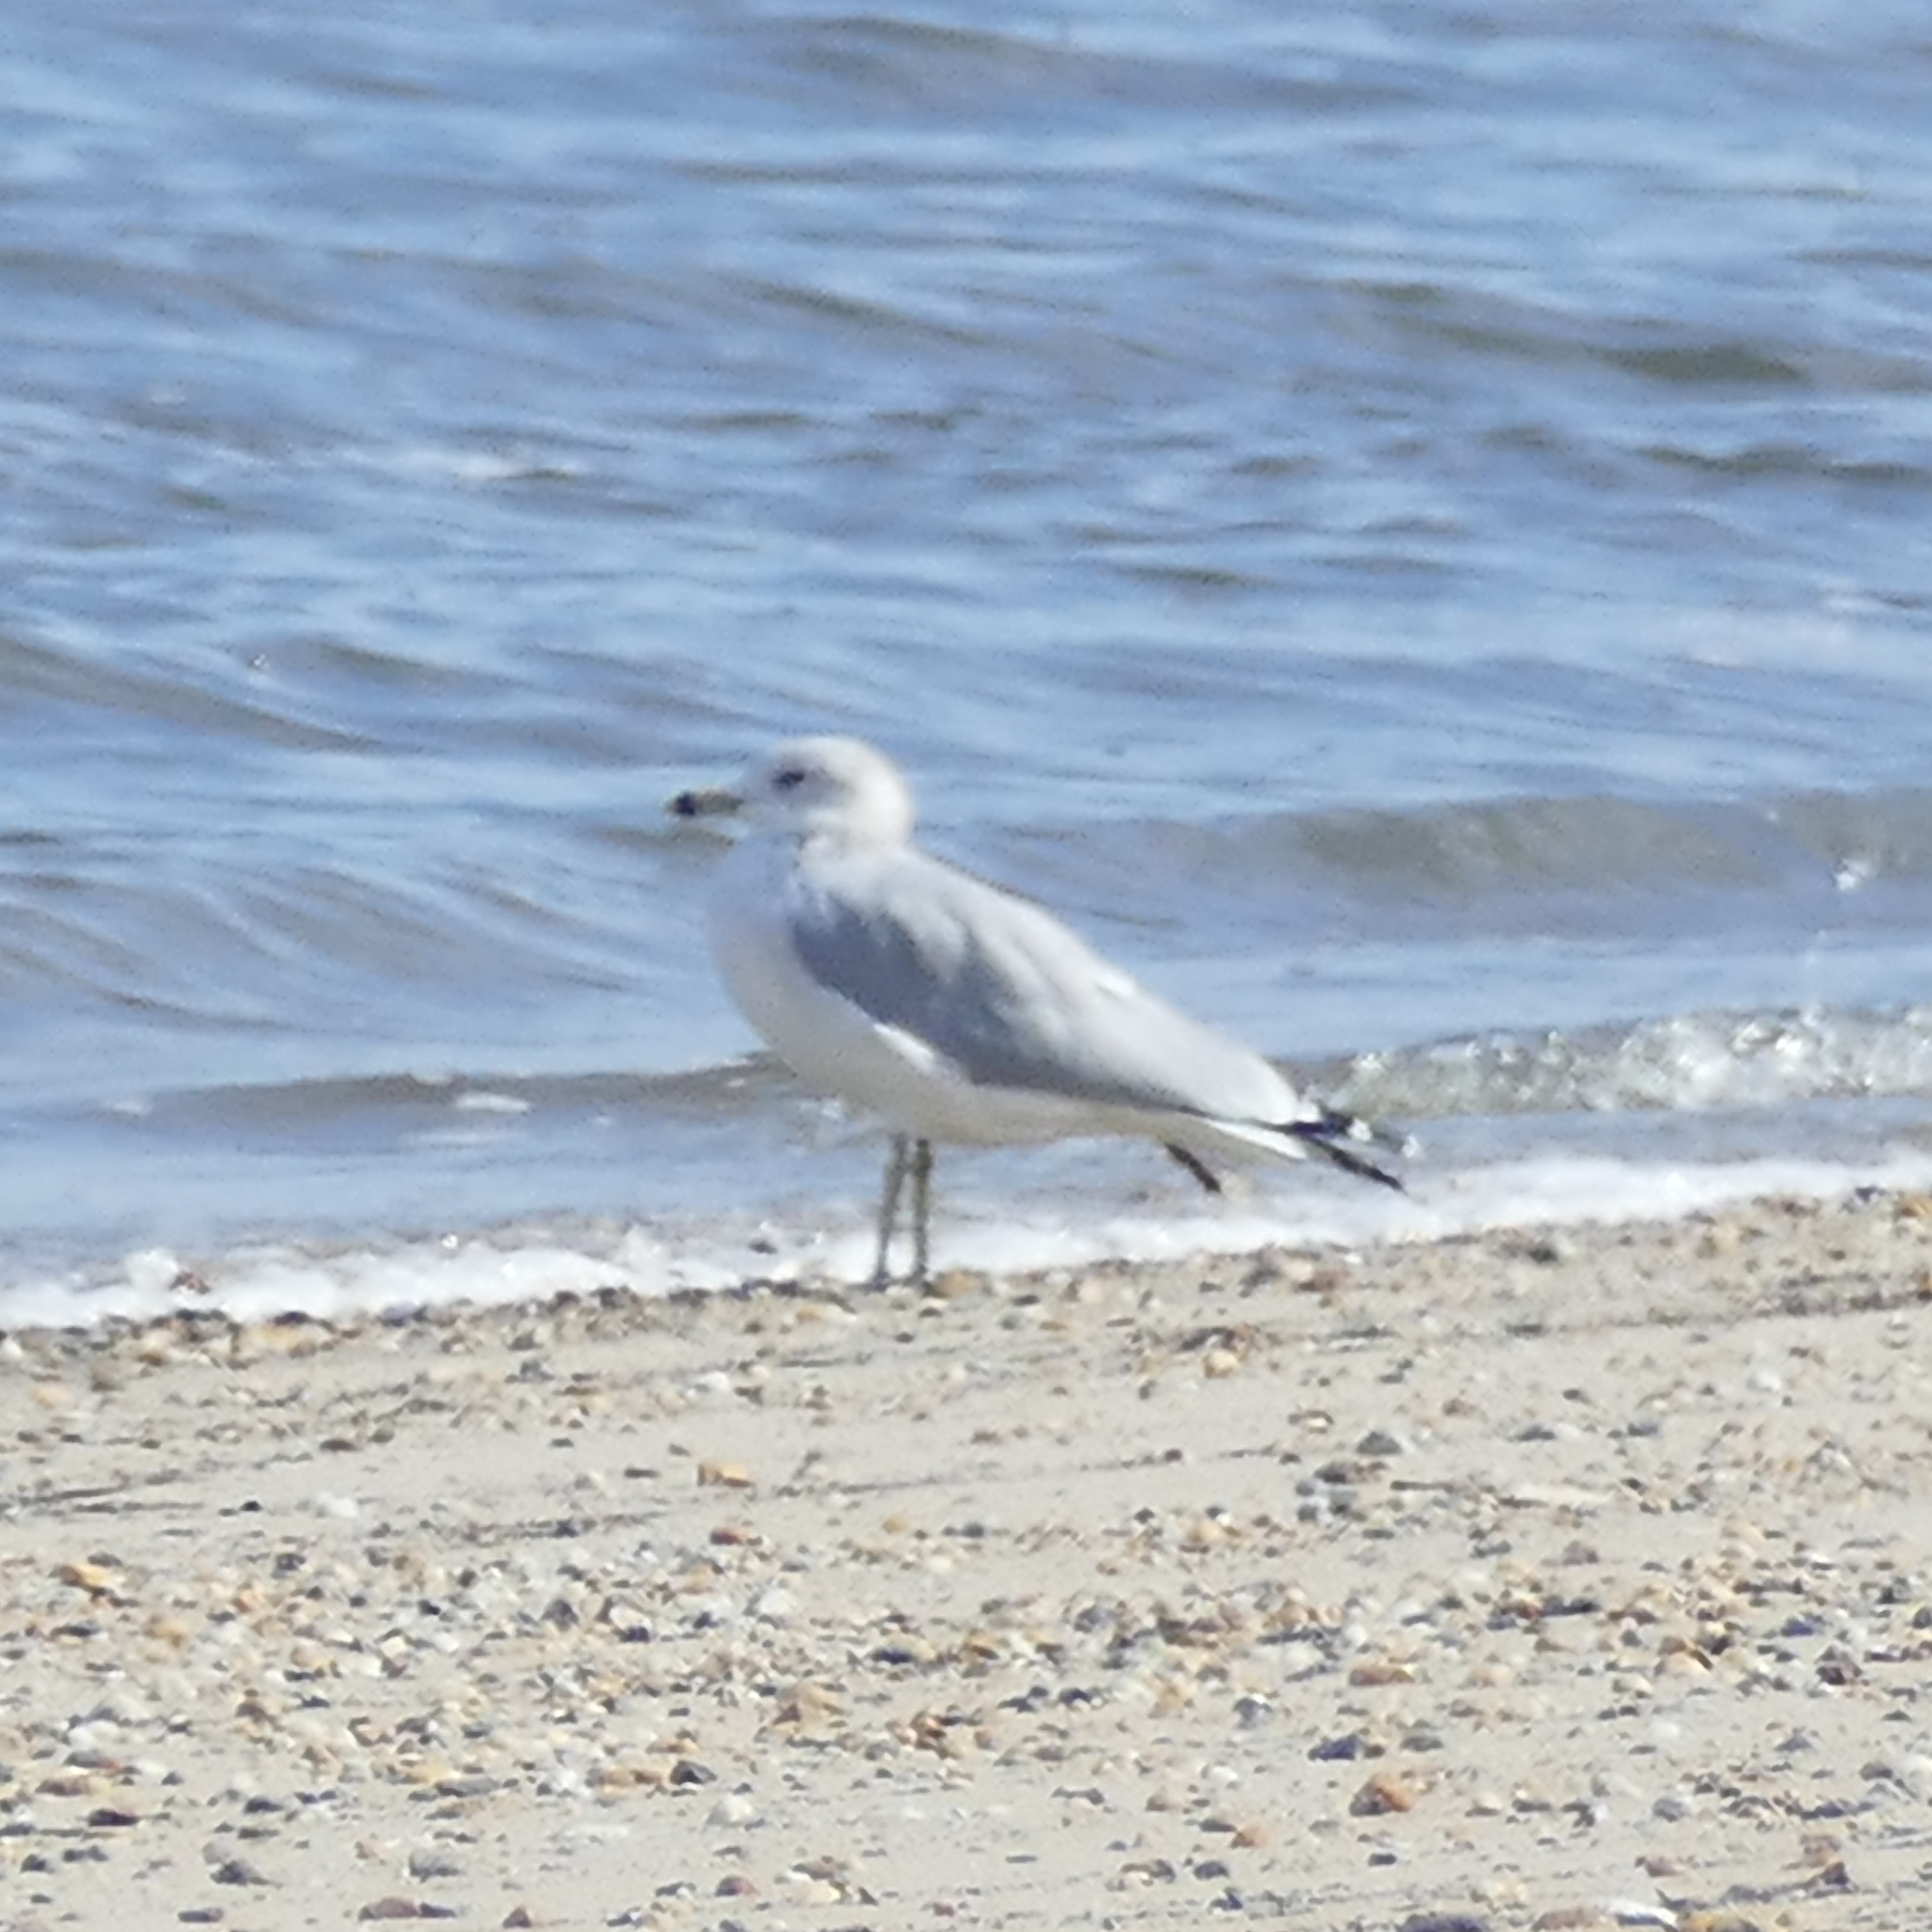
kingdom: Animalia
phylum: Chordata
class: Aves
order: Charadriiformes
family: Laridae
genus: Larus
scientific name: Larus delawarensis
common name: Ring-billed gull
